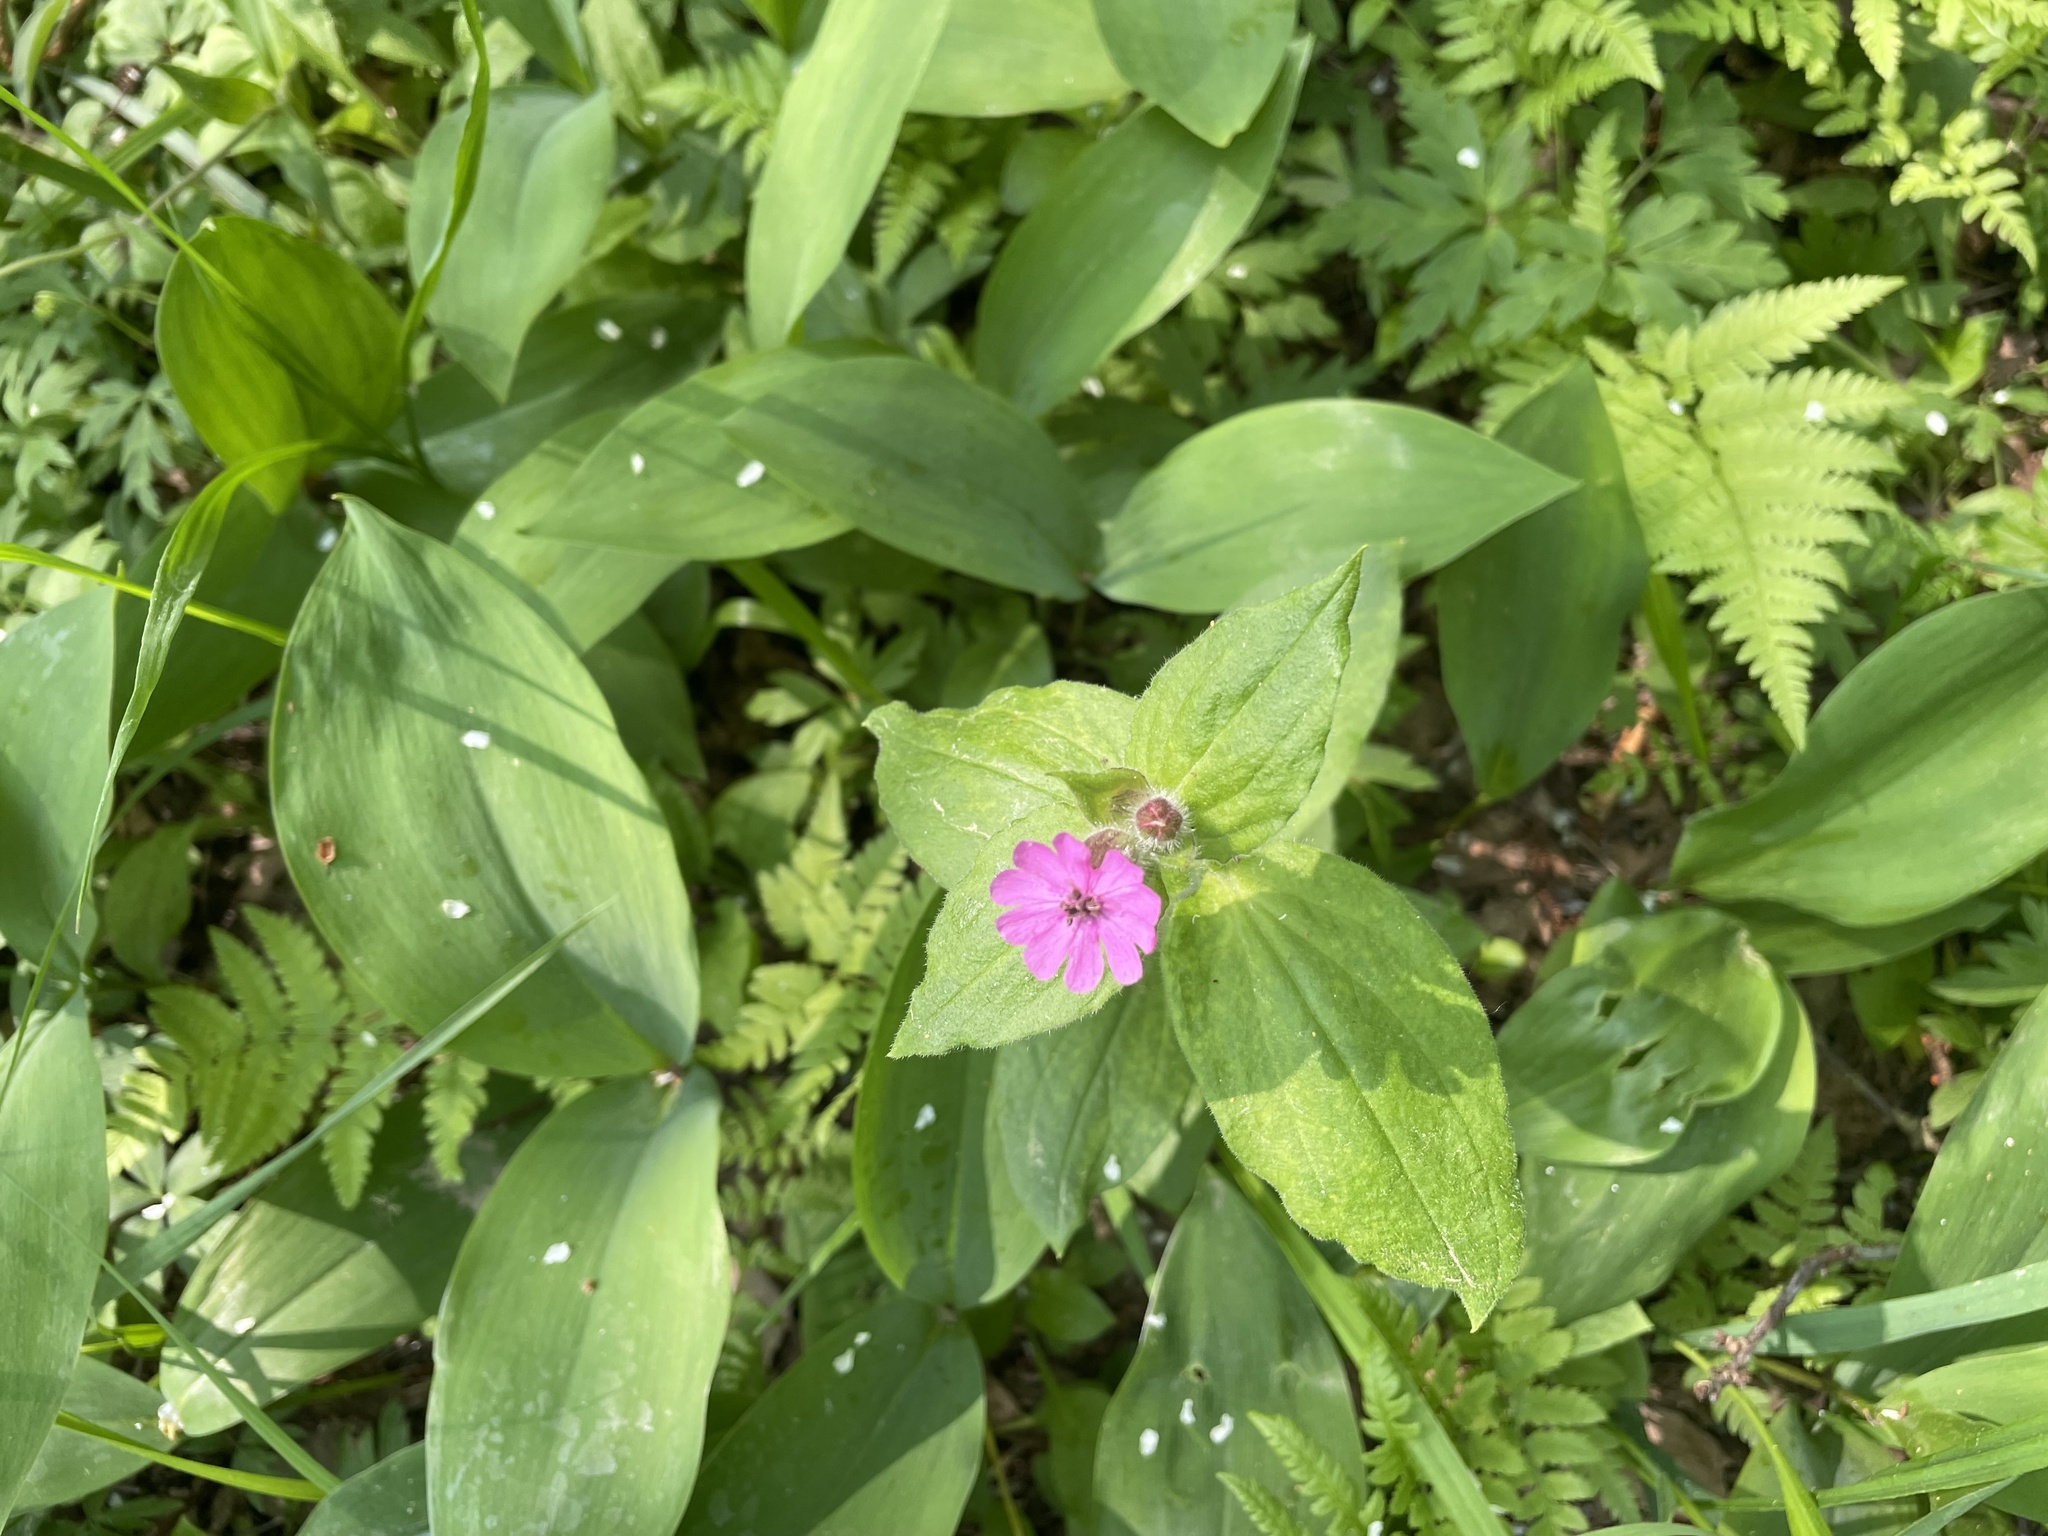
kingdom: Plantae
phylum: Tracheophyta
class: Magnoliopsida
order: Caryophyllales
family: Caryophyllaceae
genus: Silene
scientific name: Silene dioica
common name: Red campion
